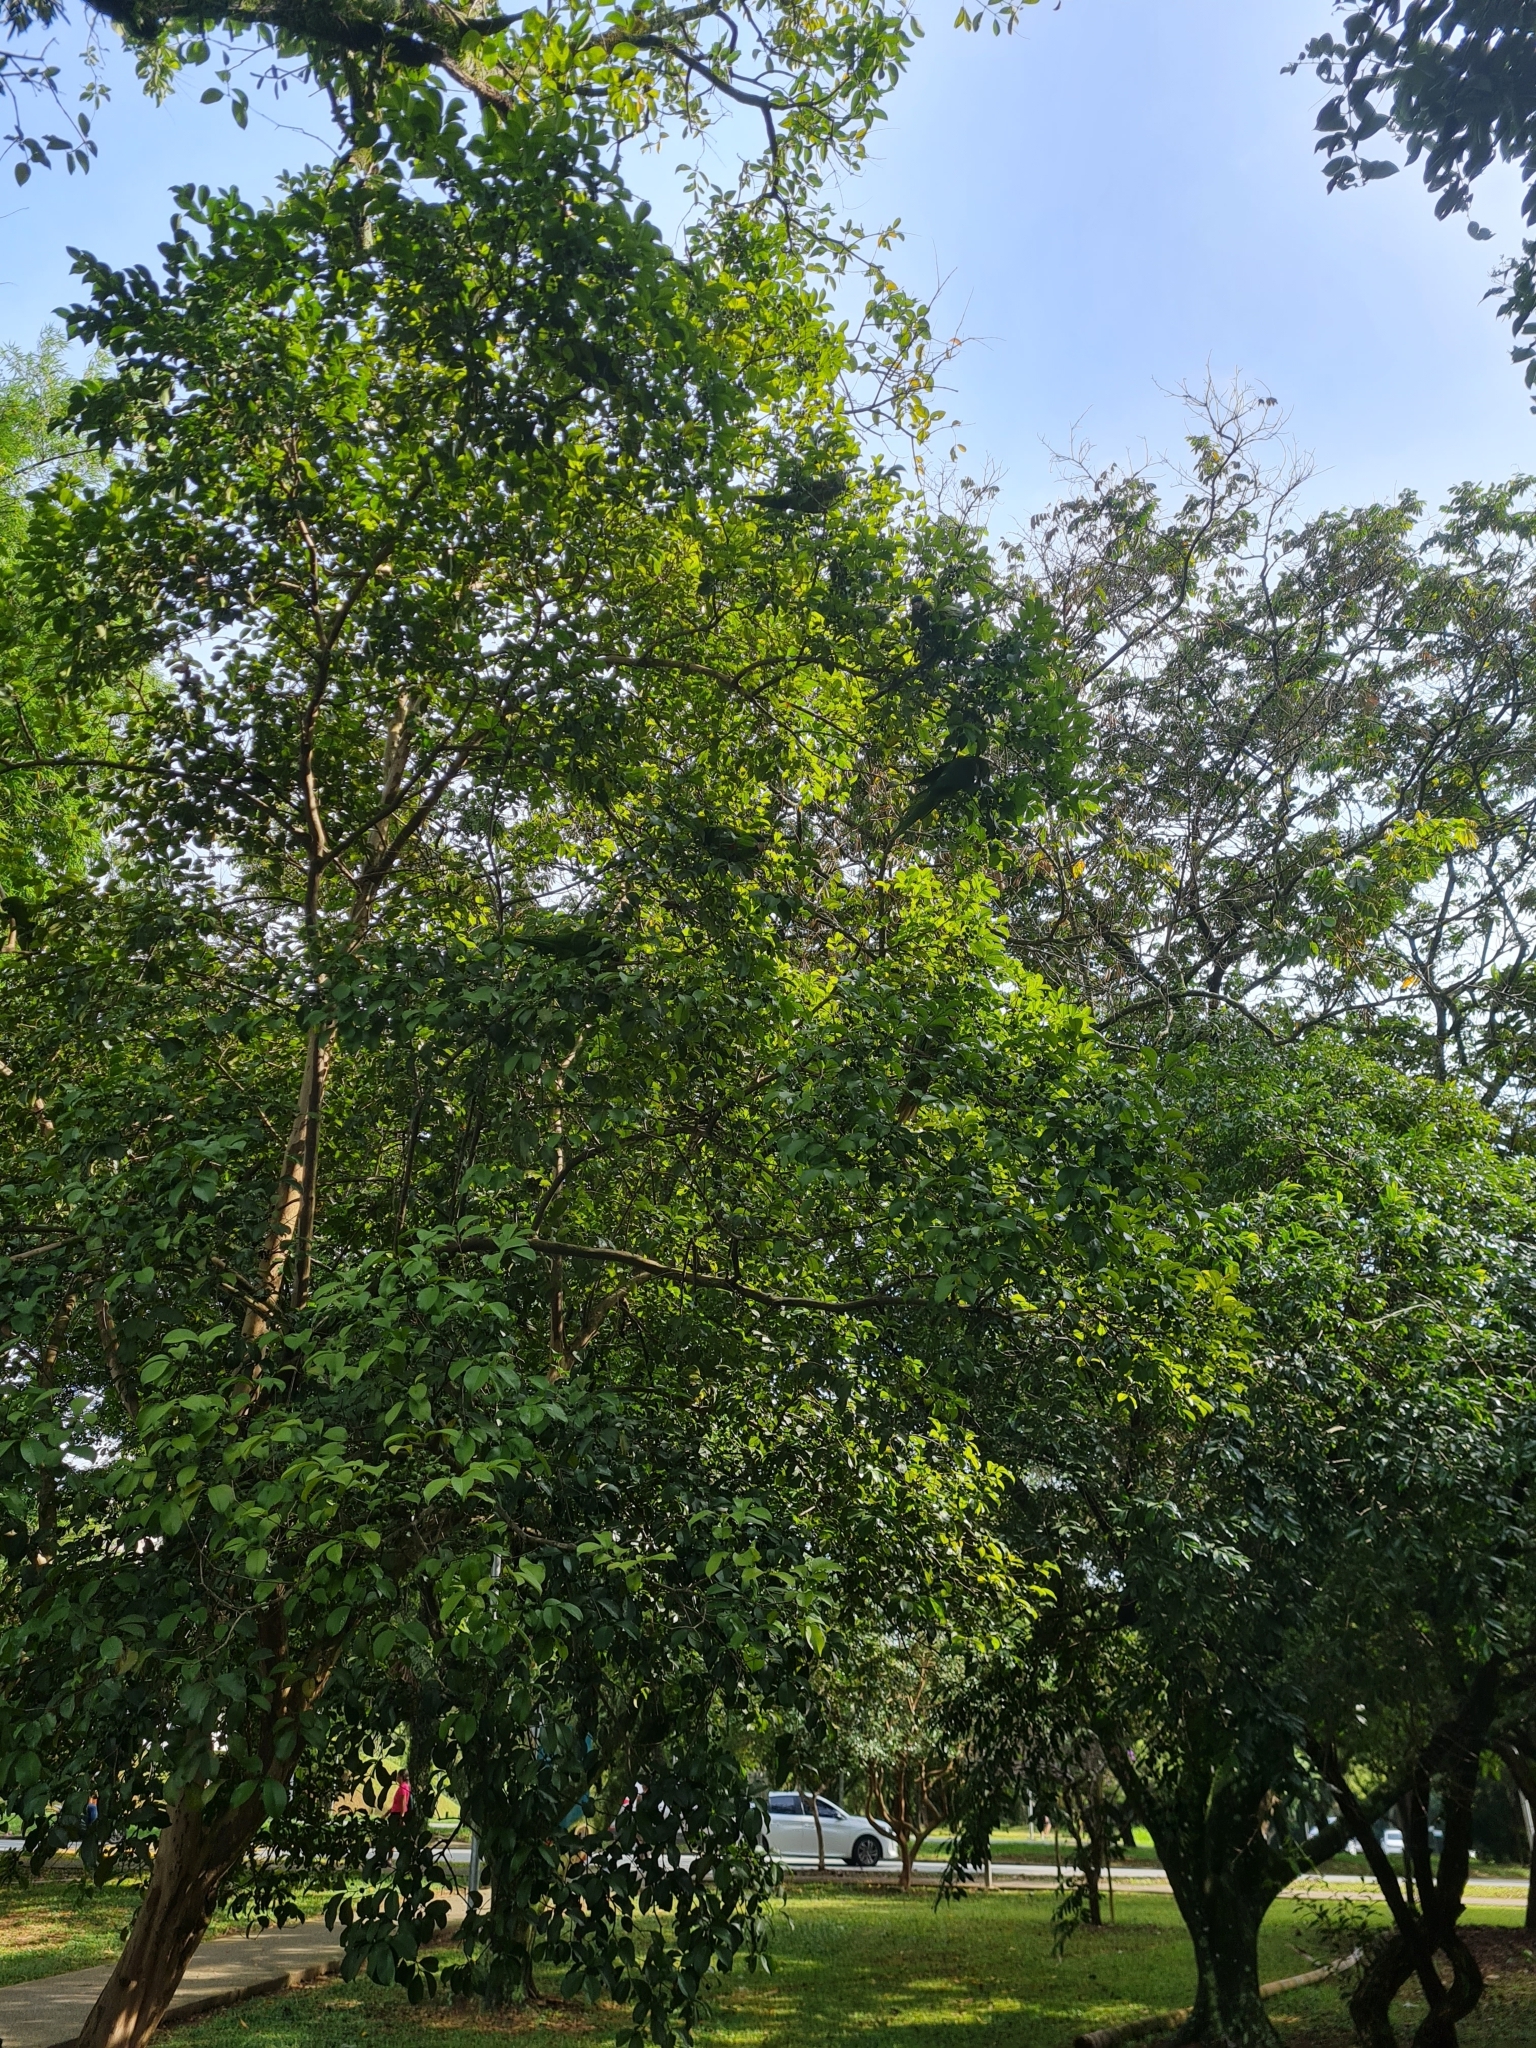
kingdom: Animalia
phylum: Chordata
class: Aves
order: Psittaciformes
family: Psittacidae
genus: Diopsittaca
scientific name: Diopsittaca nobilis
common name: Red-shouldered macaw
